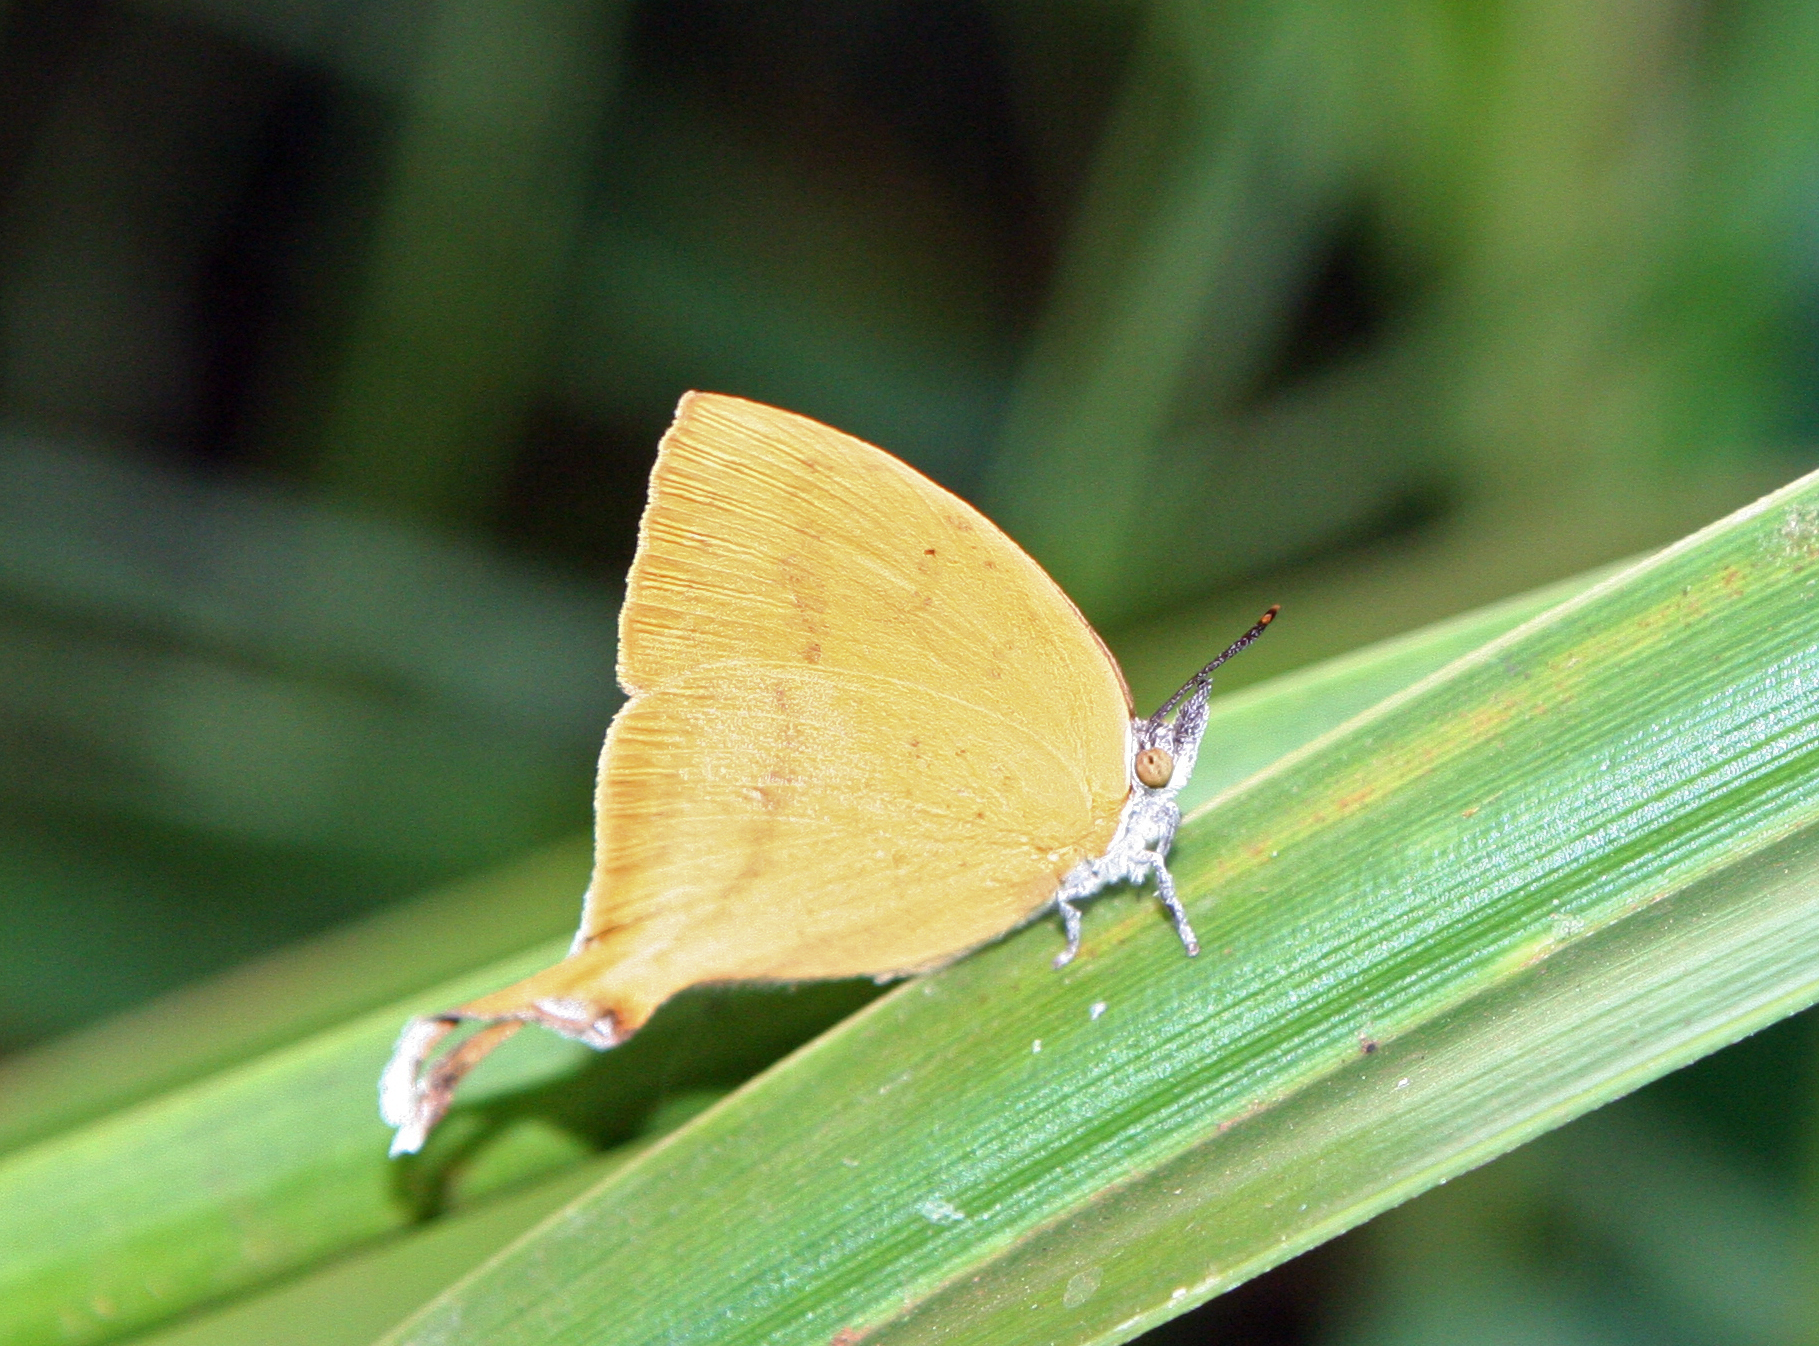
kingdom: Animalia
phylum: Arthropoda
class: Insecta
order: Lepidoptera
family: Lycaenidae
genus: Loxura
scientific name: Loxura atymnus
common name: Common yamfly
